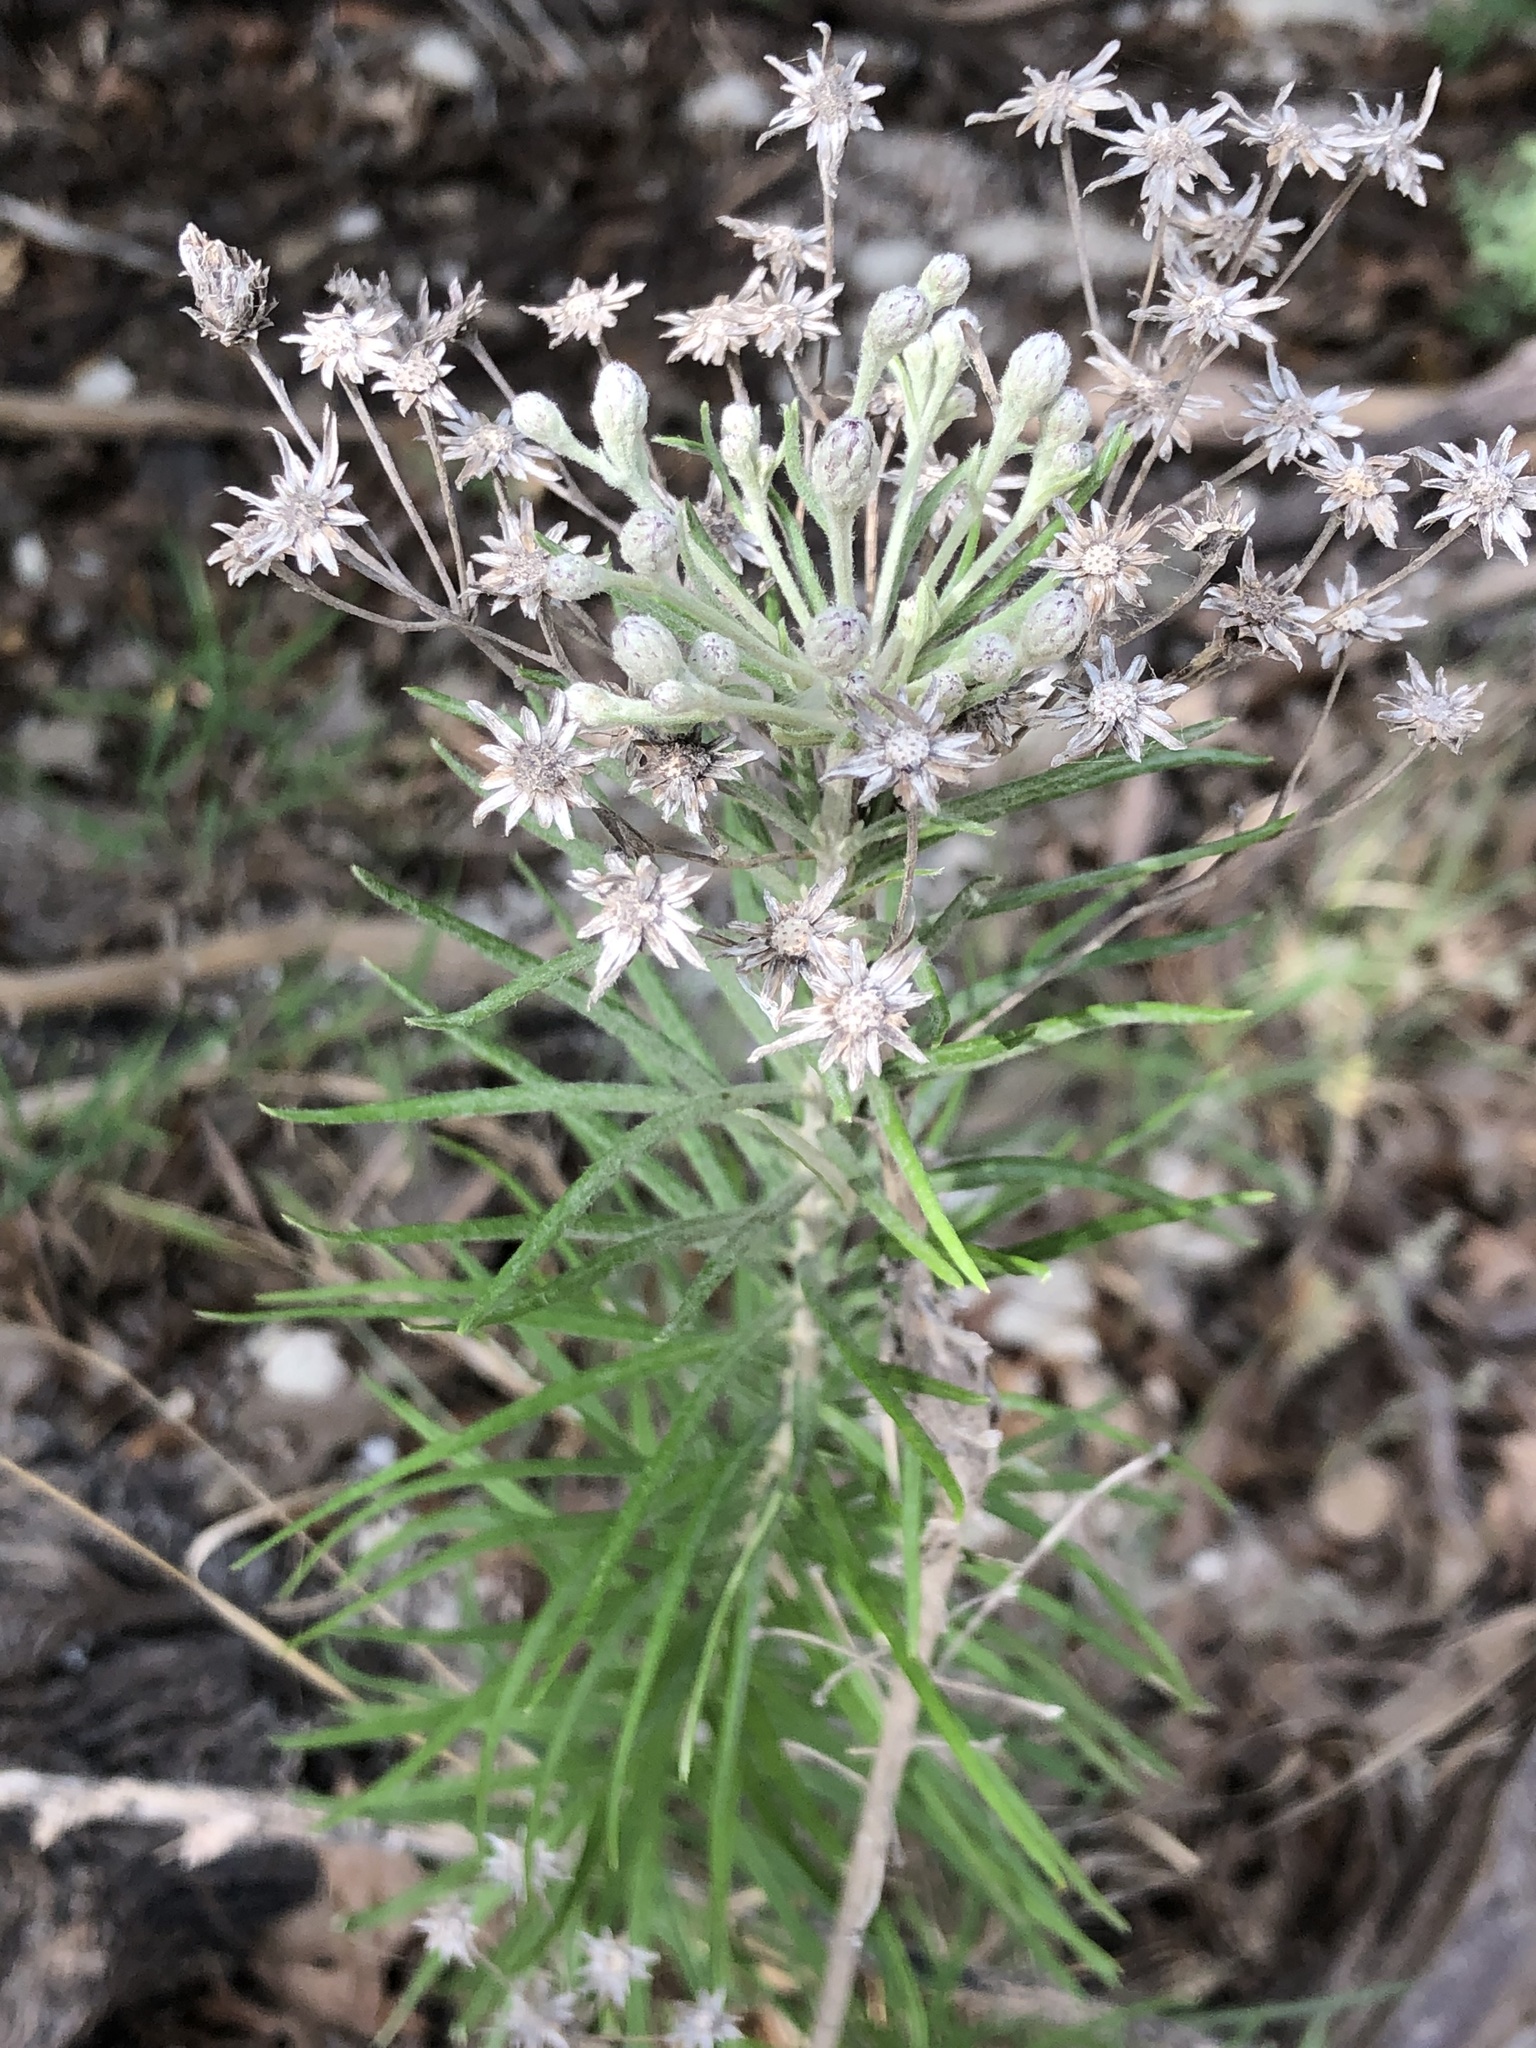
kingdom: Plantae
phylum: Tracheophyta
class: Magnoliopsida
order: Asterales
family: Asteraceae
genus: Vernonia
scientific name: Vernonia lindheimeri
